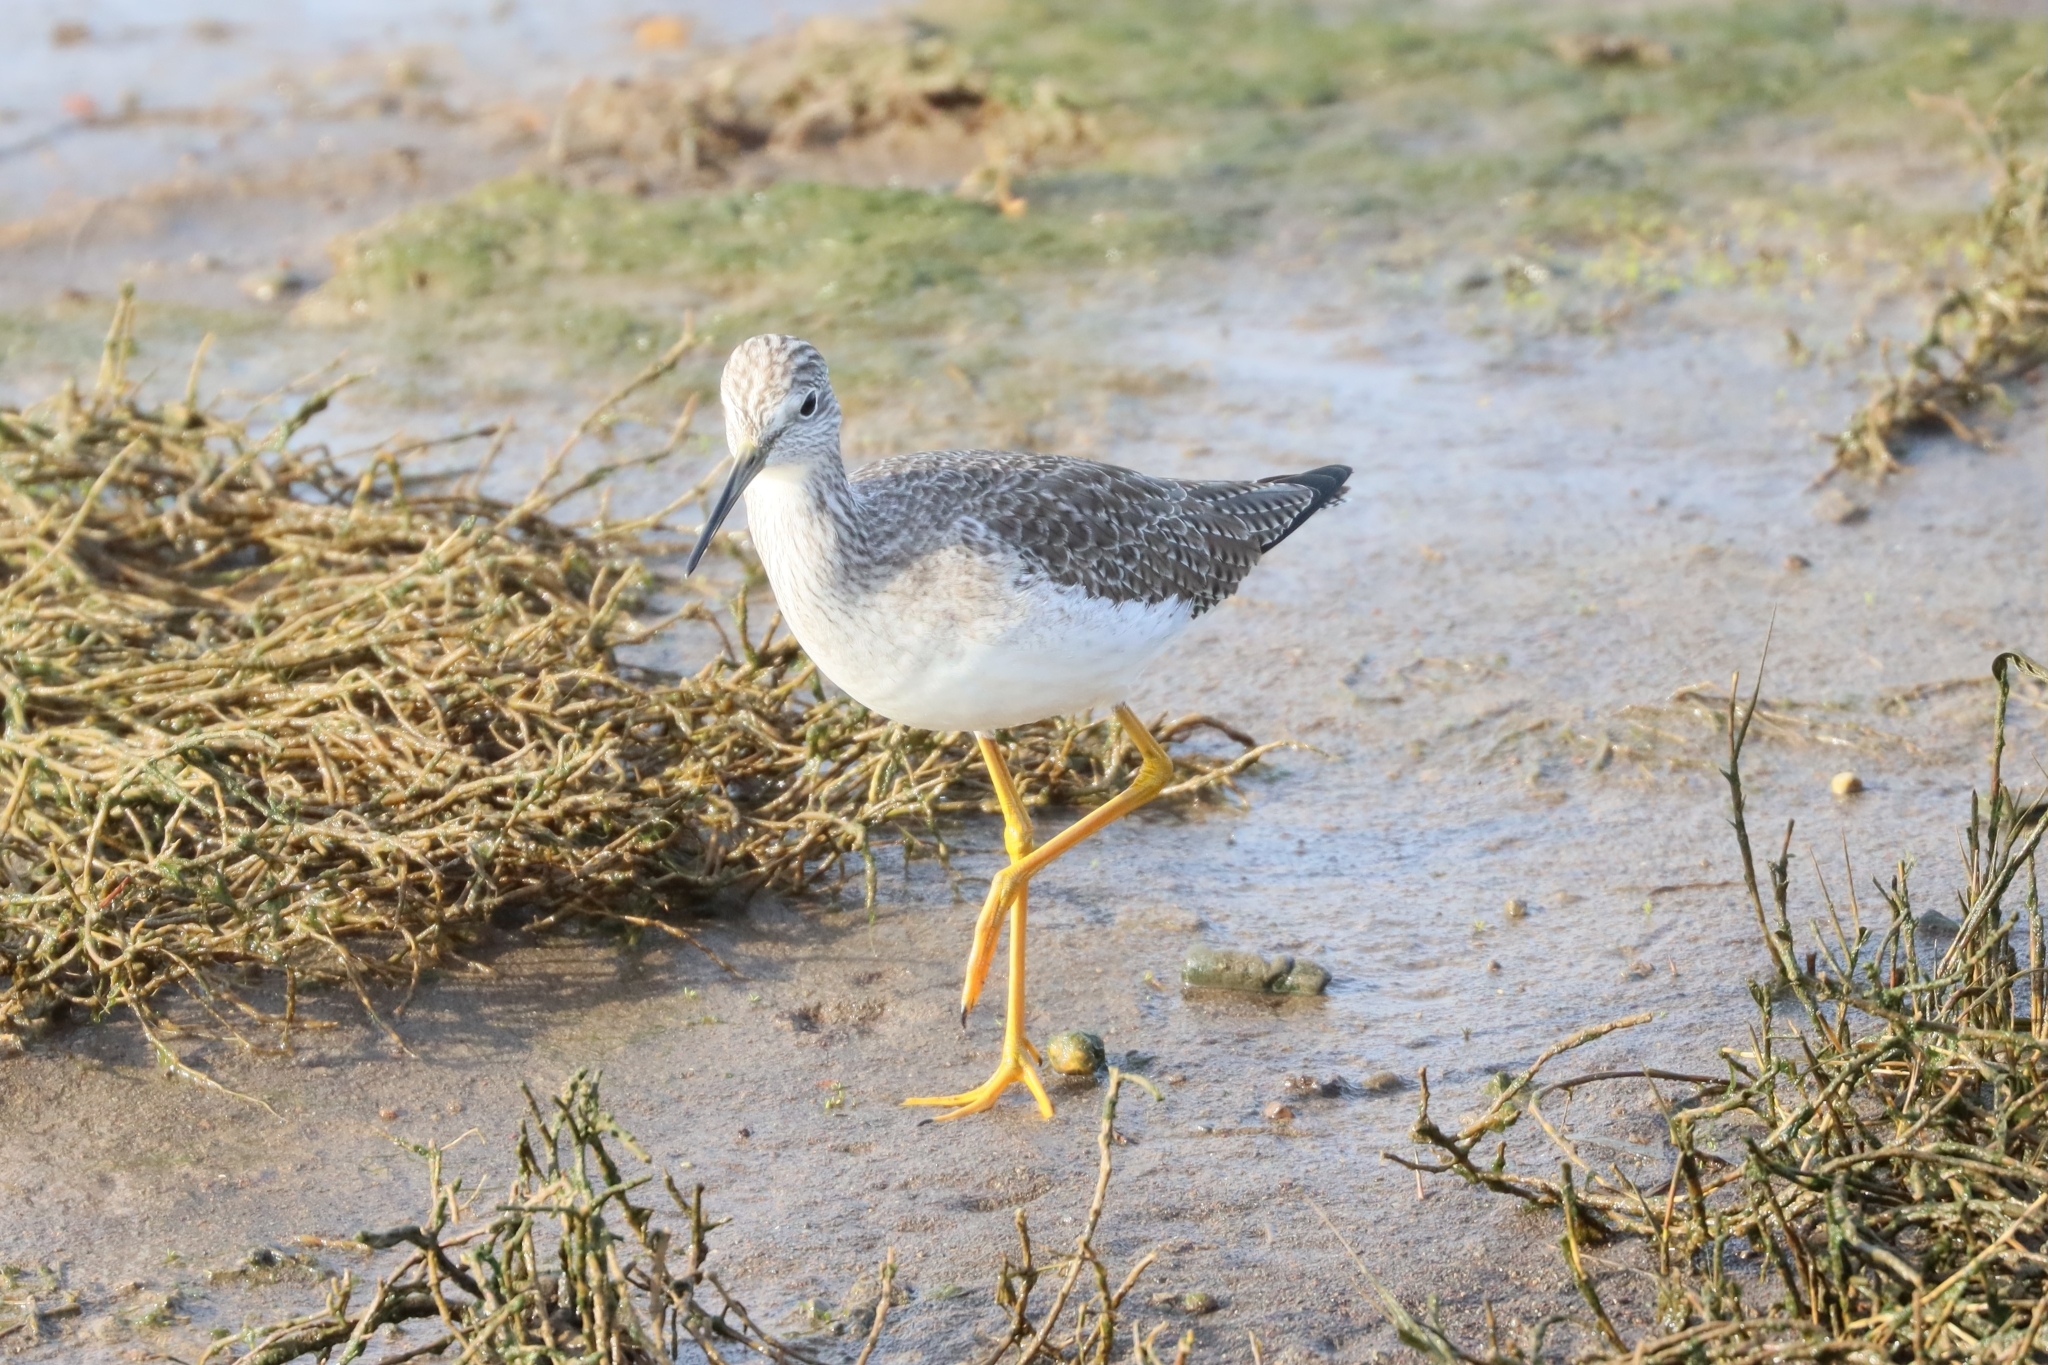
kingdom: Animalia
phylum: Chordata
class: Aves
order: Charadriiformes
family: Scolopacidae
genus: Tringa
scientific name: Tringa melanoleuca
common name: Greater yellowlegs
